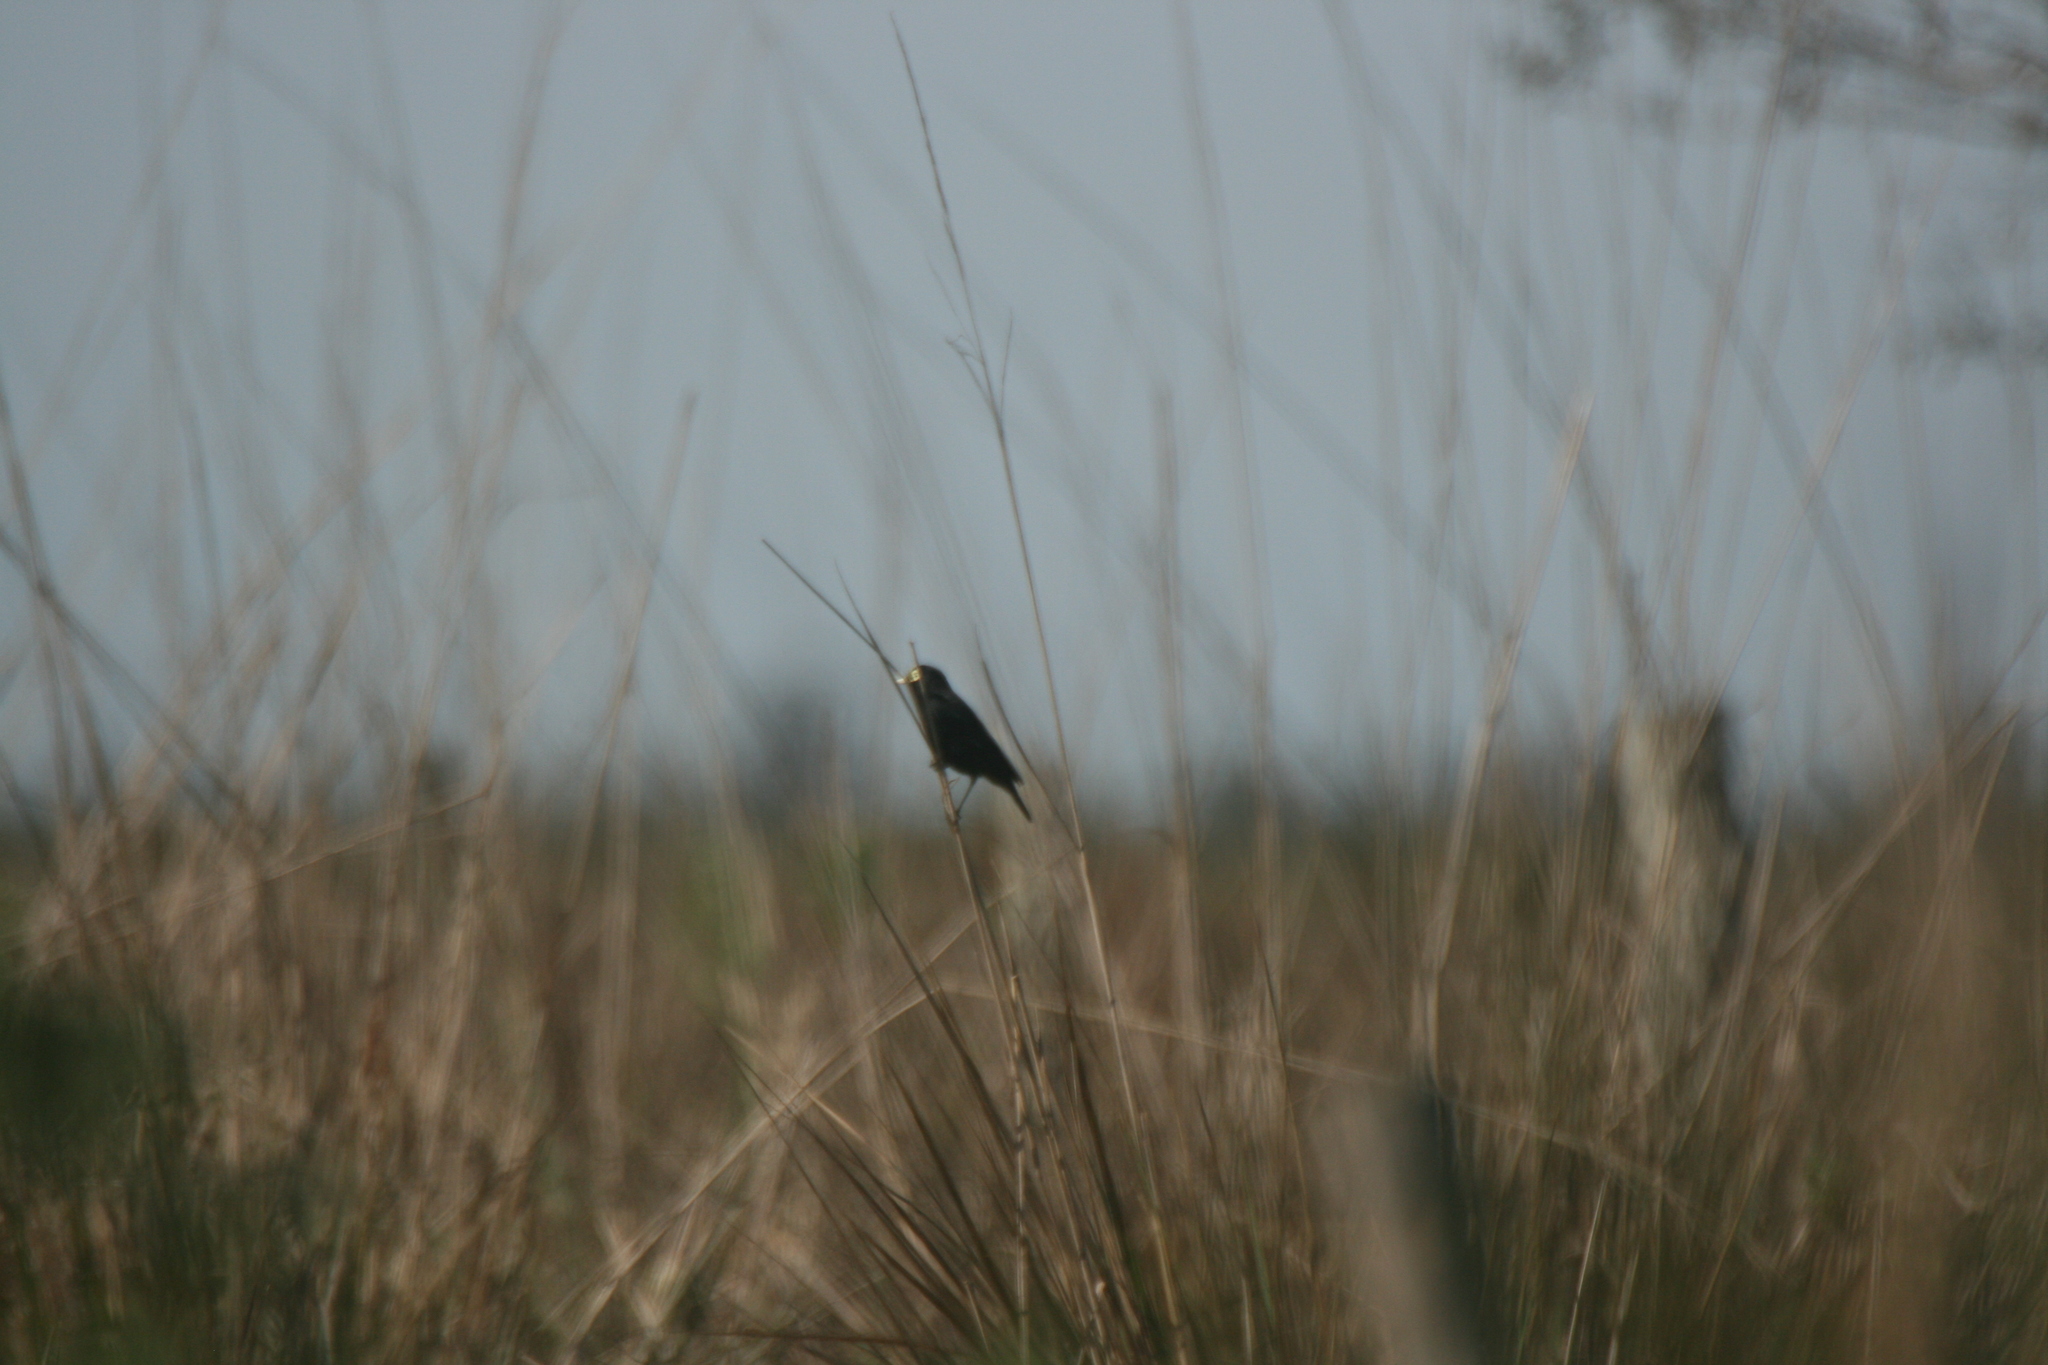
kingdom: Animalia
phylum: Chordata
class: Aves
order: Passeriformes
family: Tyrannidae
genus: Hymenops
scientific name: Hymenops perspicillatus
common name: Spectacled tyrant
